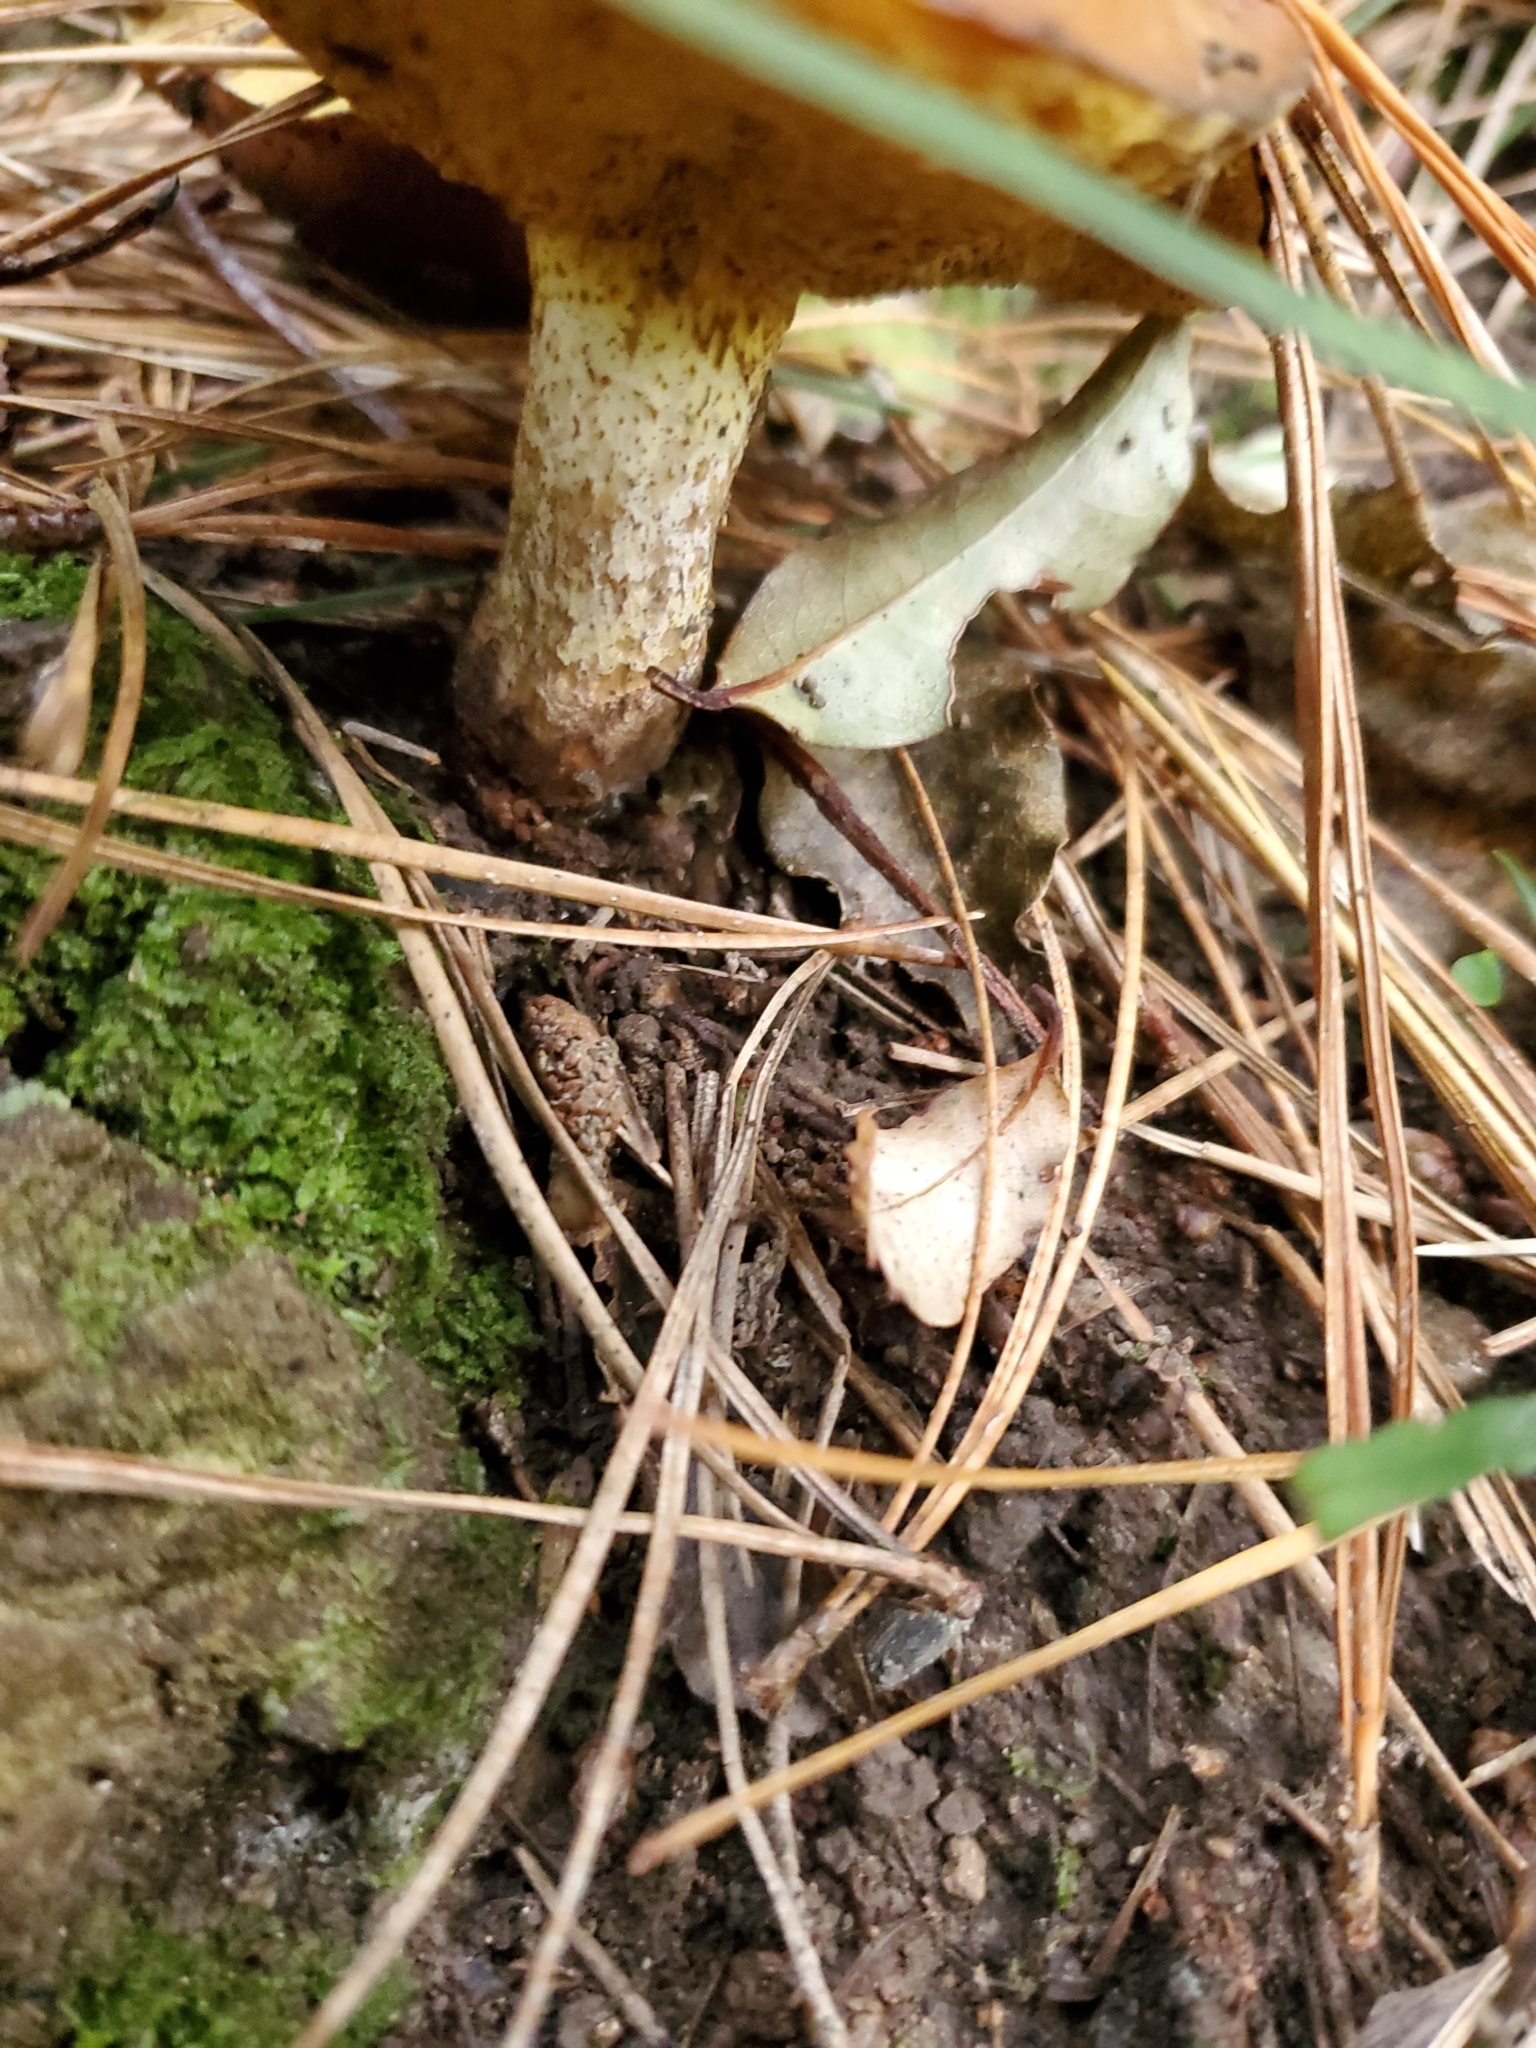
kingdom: Fungi
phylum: Basidiomycota
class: Agaricomycetes
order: Boletales
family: Suillaceae
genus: Suillus
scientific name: Suillus granulatus
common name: Weeping bolete
